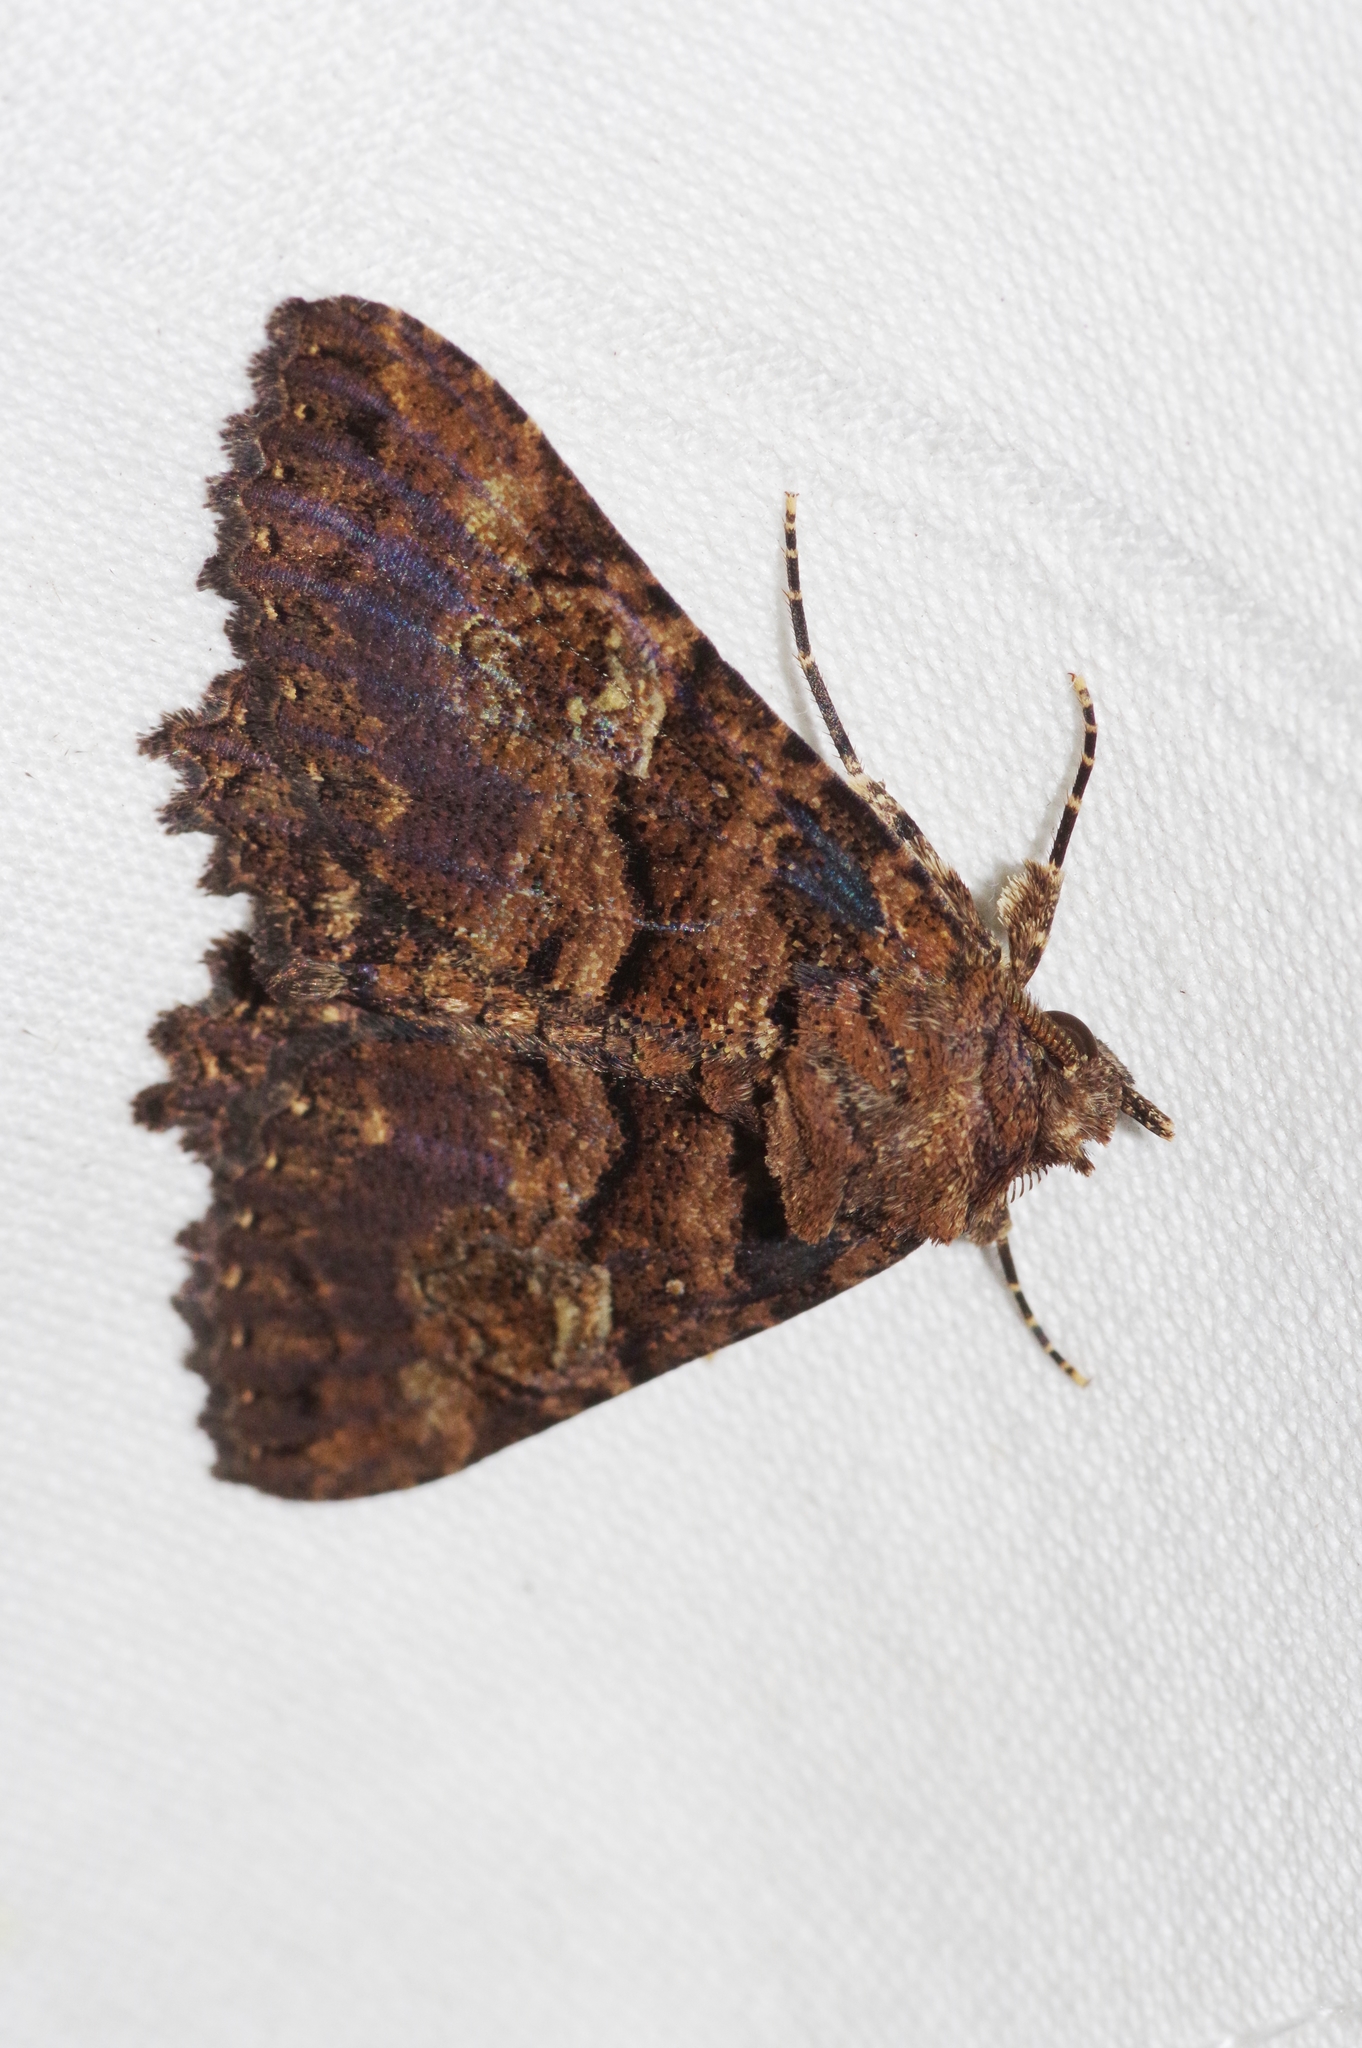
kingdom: Animalia
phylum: Arthropoda
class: Insecta
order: Lepidoptera
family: Erebidae
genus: Daddala
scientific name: Daddala lucilla
